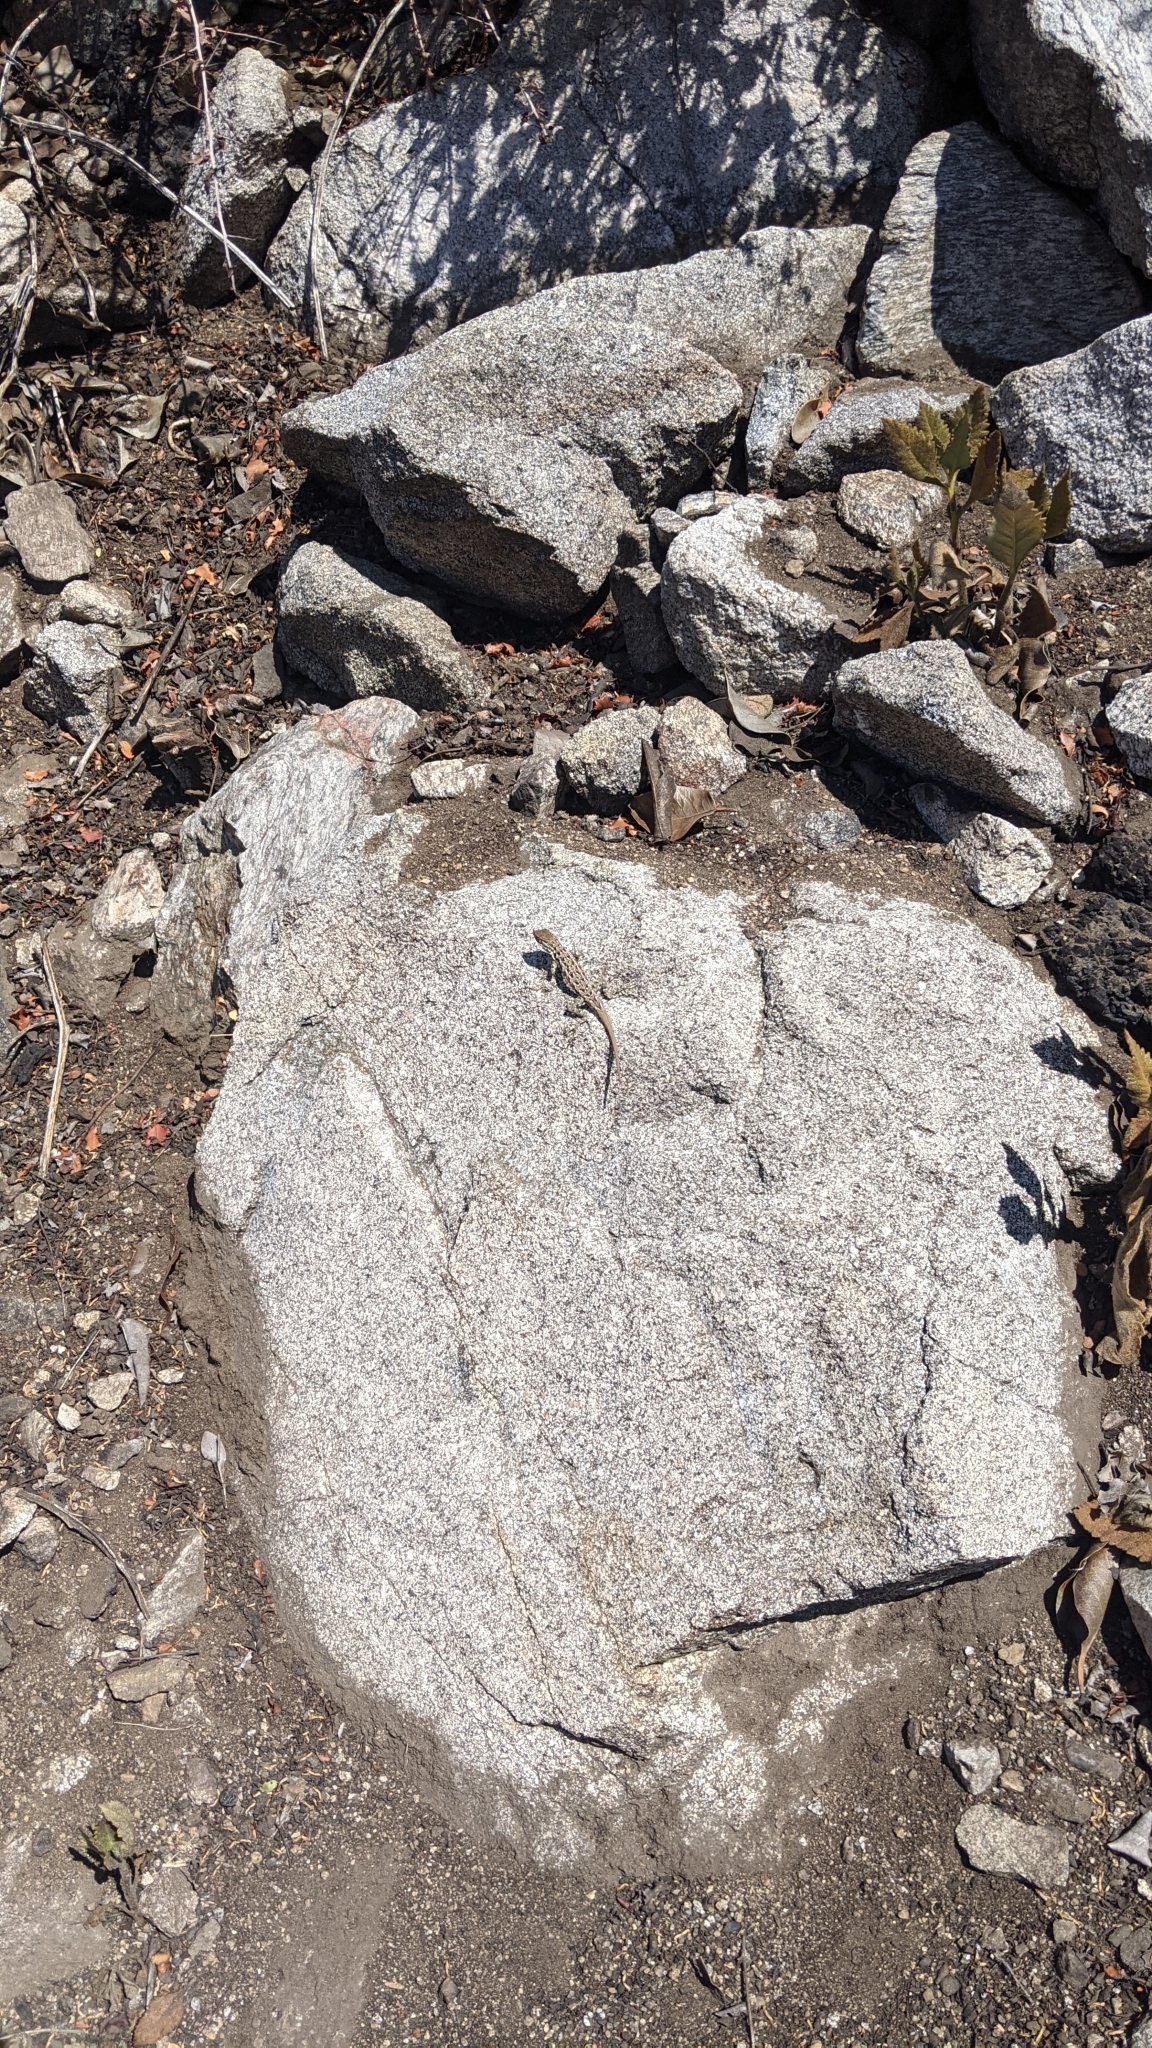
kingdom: Animalia
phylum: Chordata
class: Squamata
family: Phrynosomatidae
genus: Uta
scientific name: Uta stansburiana
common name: Side-blotched lizard
